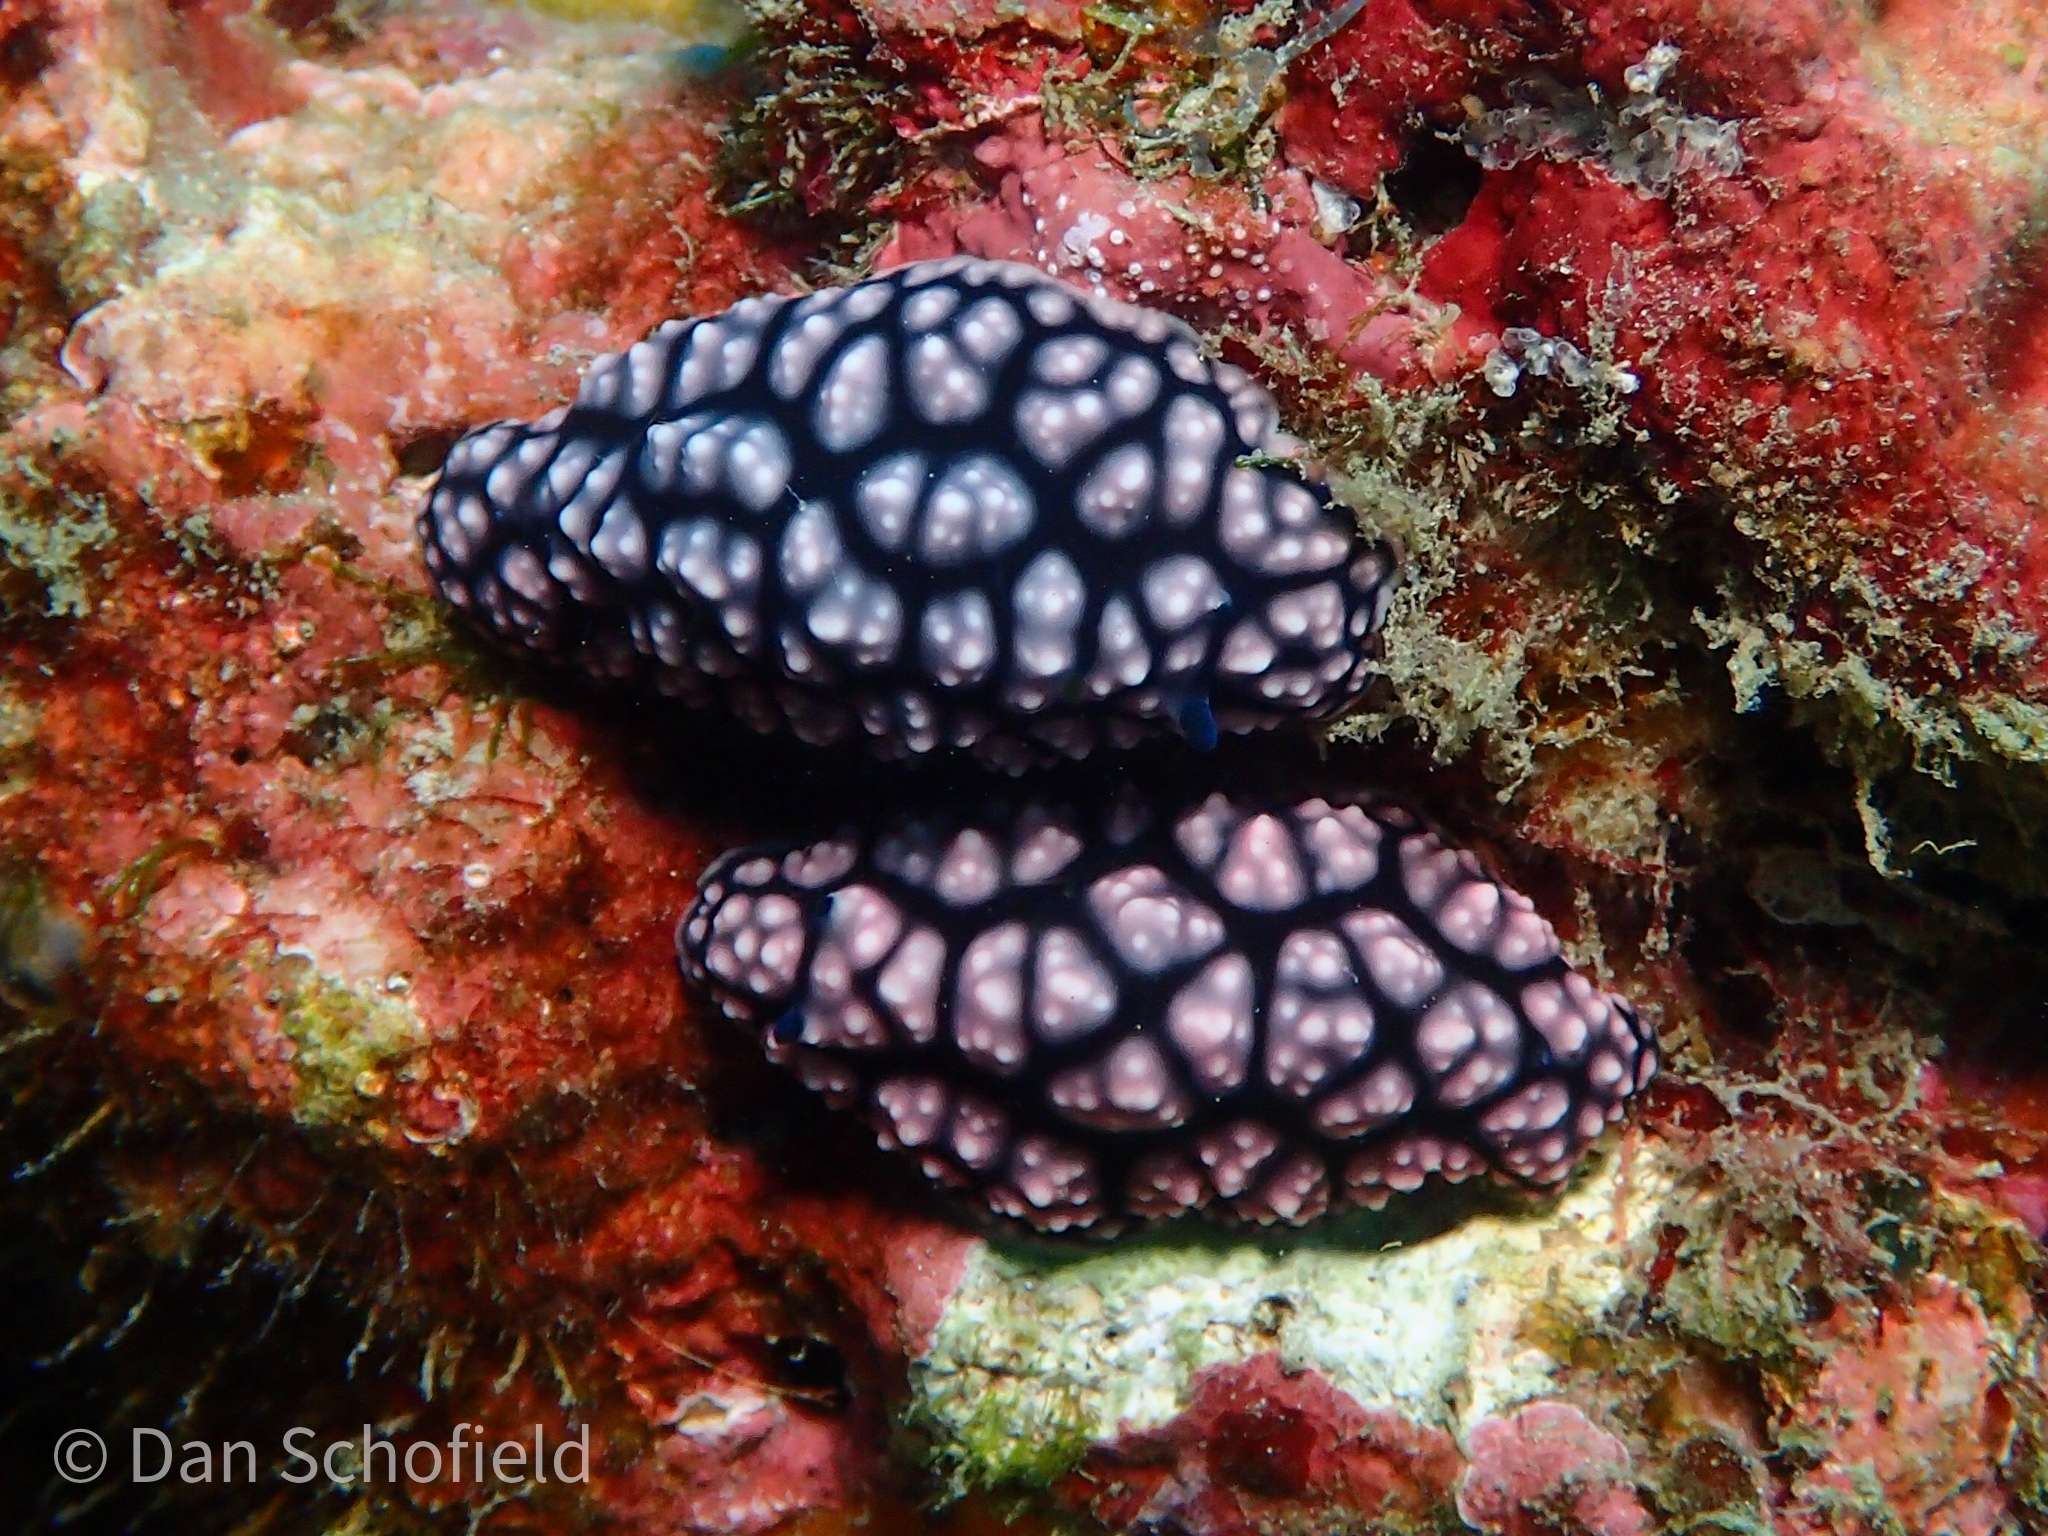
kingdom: Animalia
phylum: Mollusca
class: Gastropoda
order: Nudibranchia
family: Phyllidiidae
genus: Phyllidiella
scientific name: Phyllidiella pustulosa
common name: Pustular phyllidia
